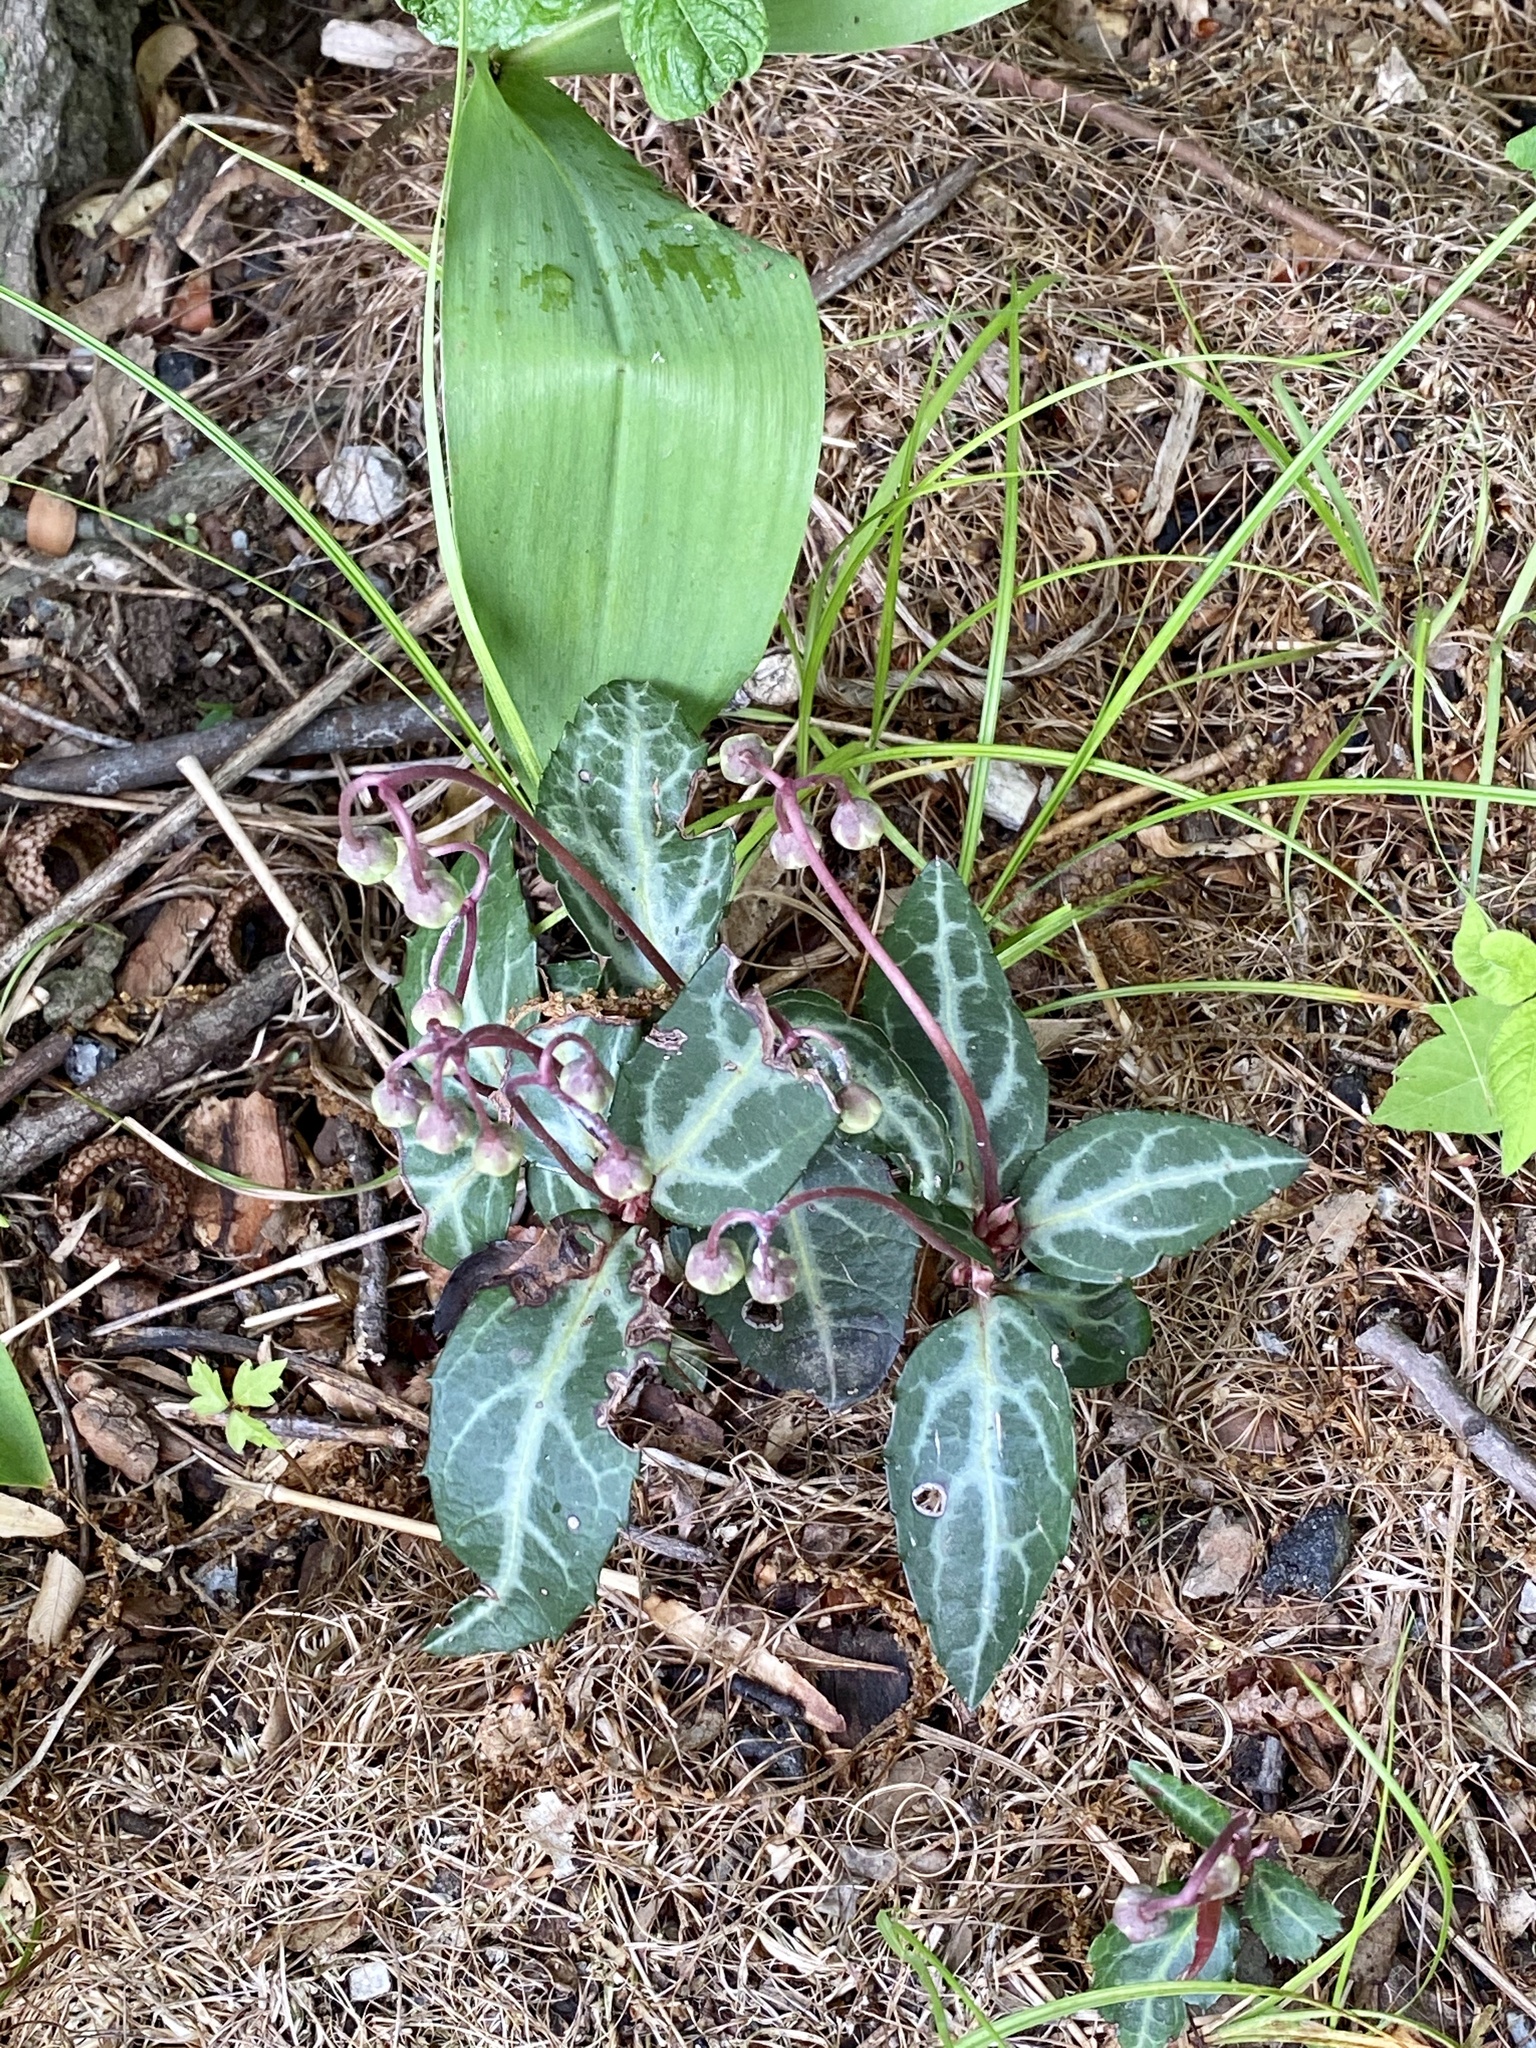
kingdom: Plantae
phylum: Tracheophyta
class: Magnoliopsida
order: Ericales
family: Ericaceae
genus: Chimaphila
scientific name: Chimaphila maculata
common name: Spotted pipsissewa
